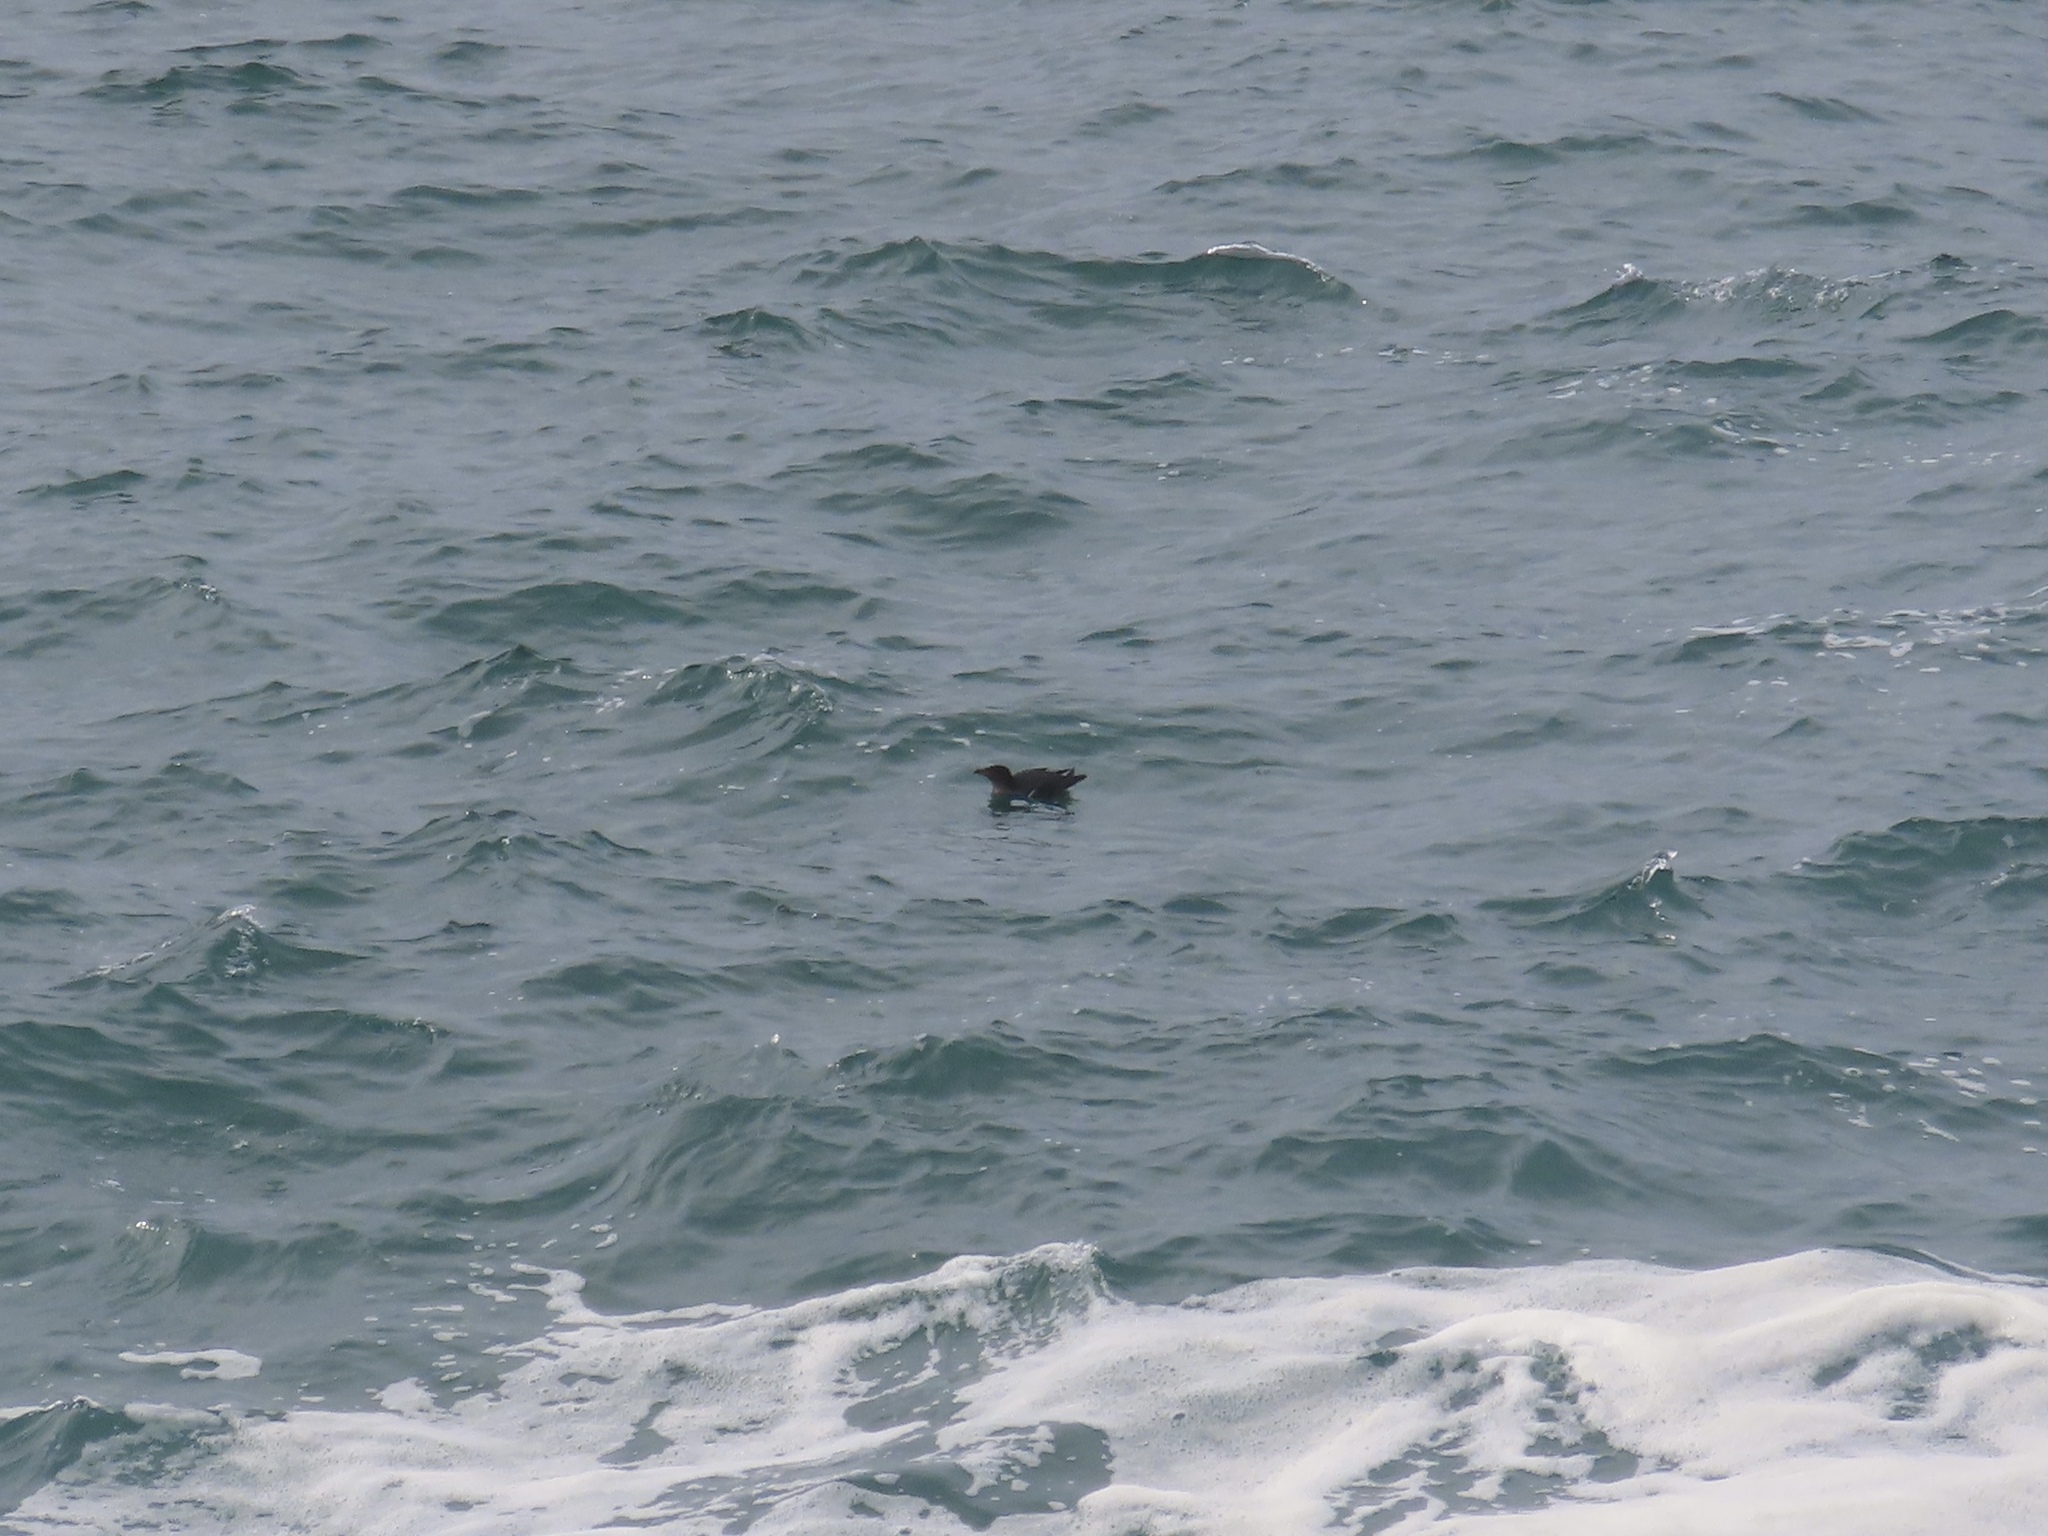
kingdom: Animalia
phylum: Chordata
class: Aves
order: Charadriiformes
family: Alcidae
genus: Cerorhinca
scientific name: Cerorhinca monocerata
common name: Rhinoceros auklet
